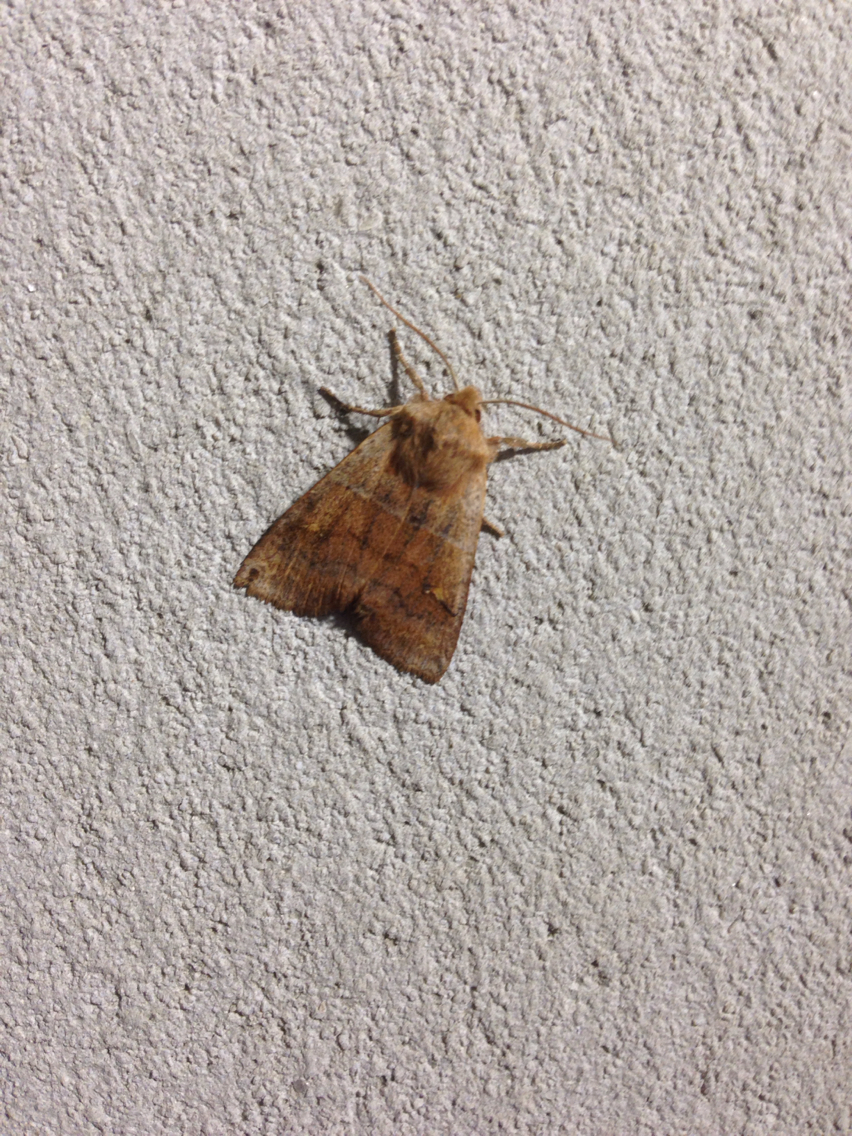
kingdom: Animalia
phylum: Arthropoda
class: Insecta
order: Lepidoptera
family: Noctuidae
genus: Eupsilia
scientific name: Eupsilia vinulenta
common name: Straight-toothed sallow
